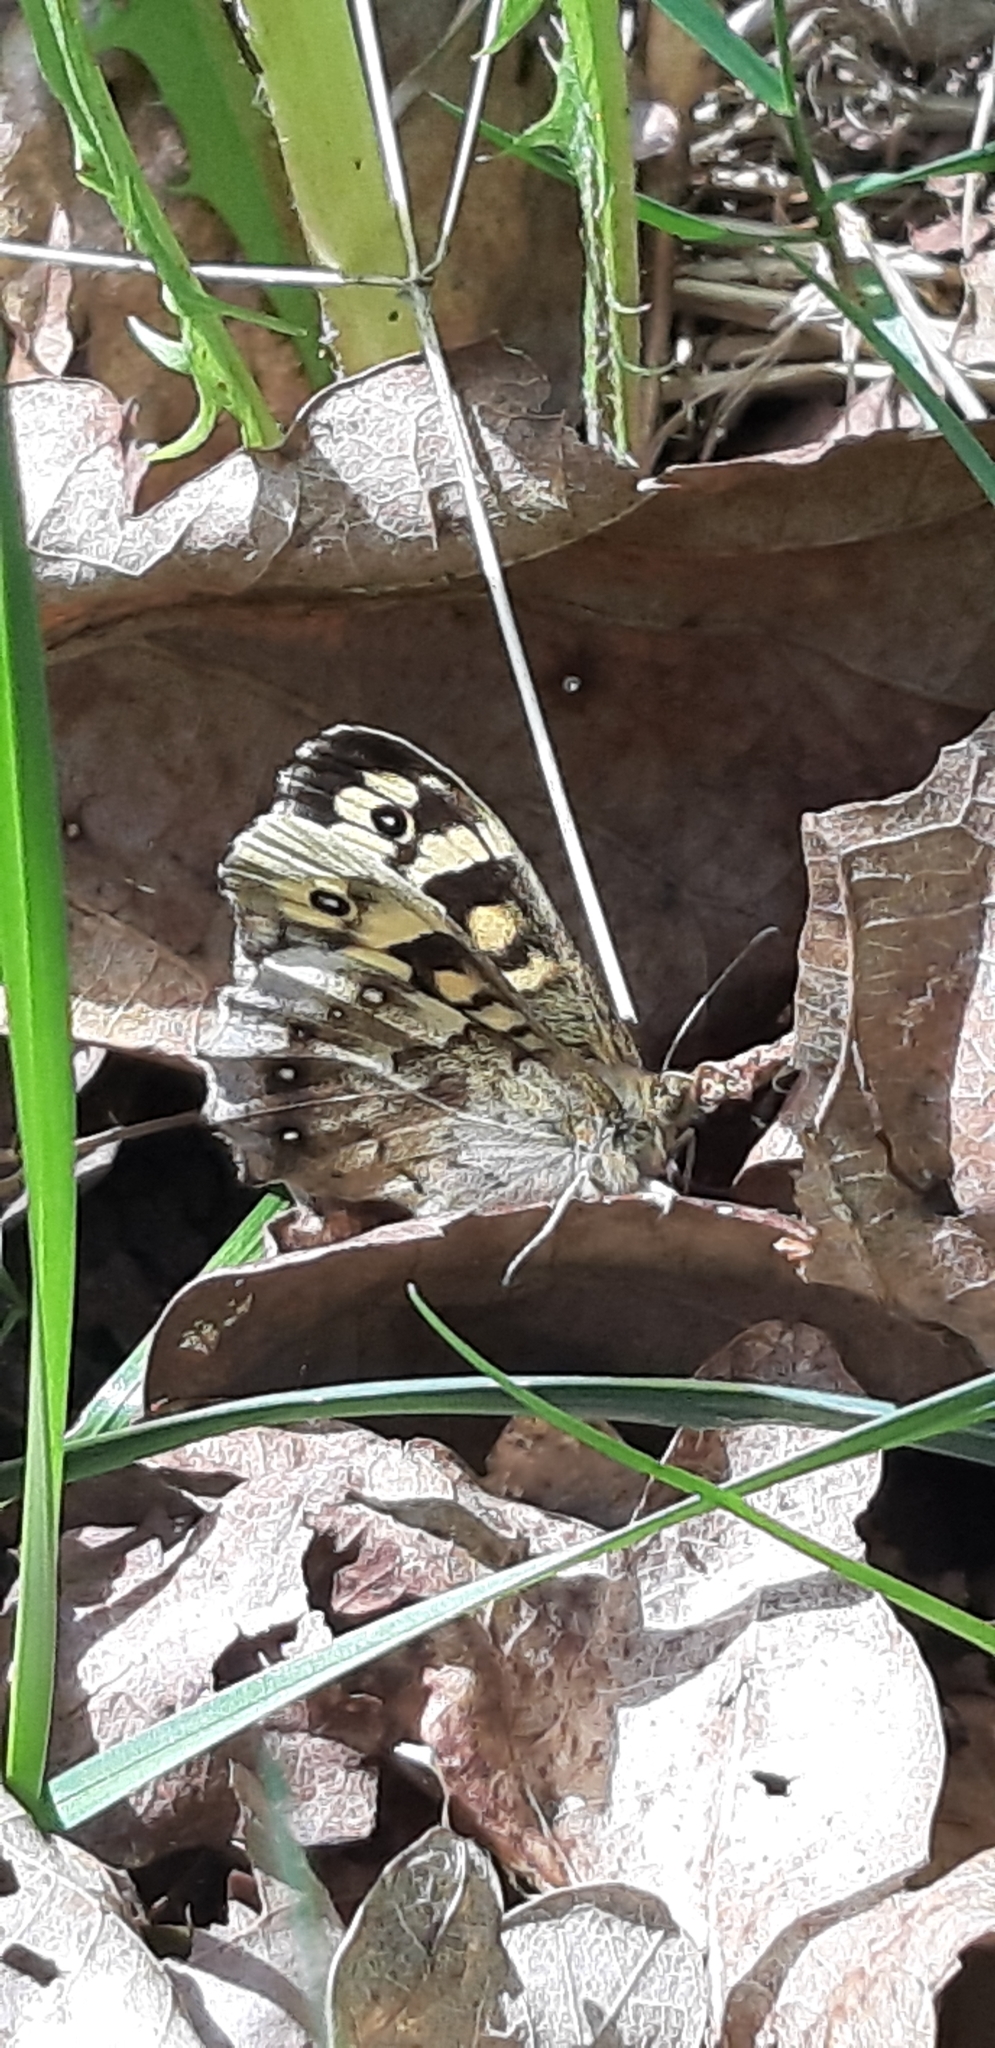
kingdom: Animalia
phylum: Arthropoda
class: Insecta
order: Lepidoptera
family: Nymphalidae
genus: Pararge
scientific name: Pararge aegeria
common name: Speckled wood
